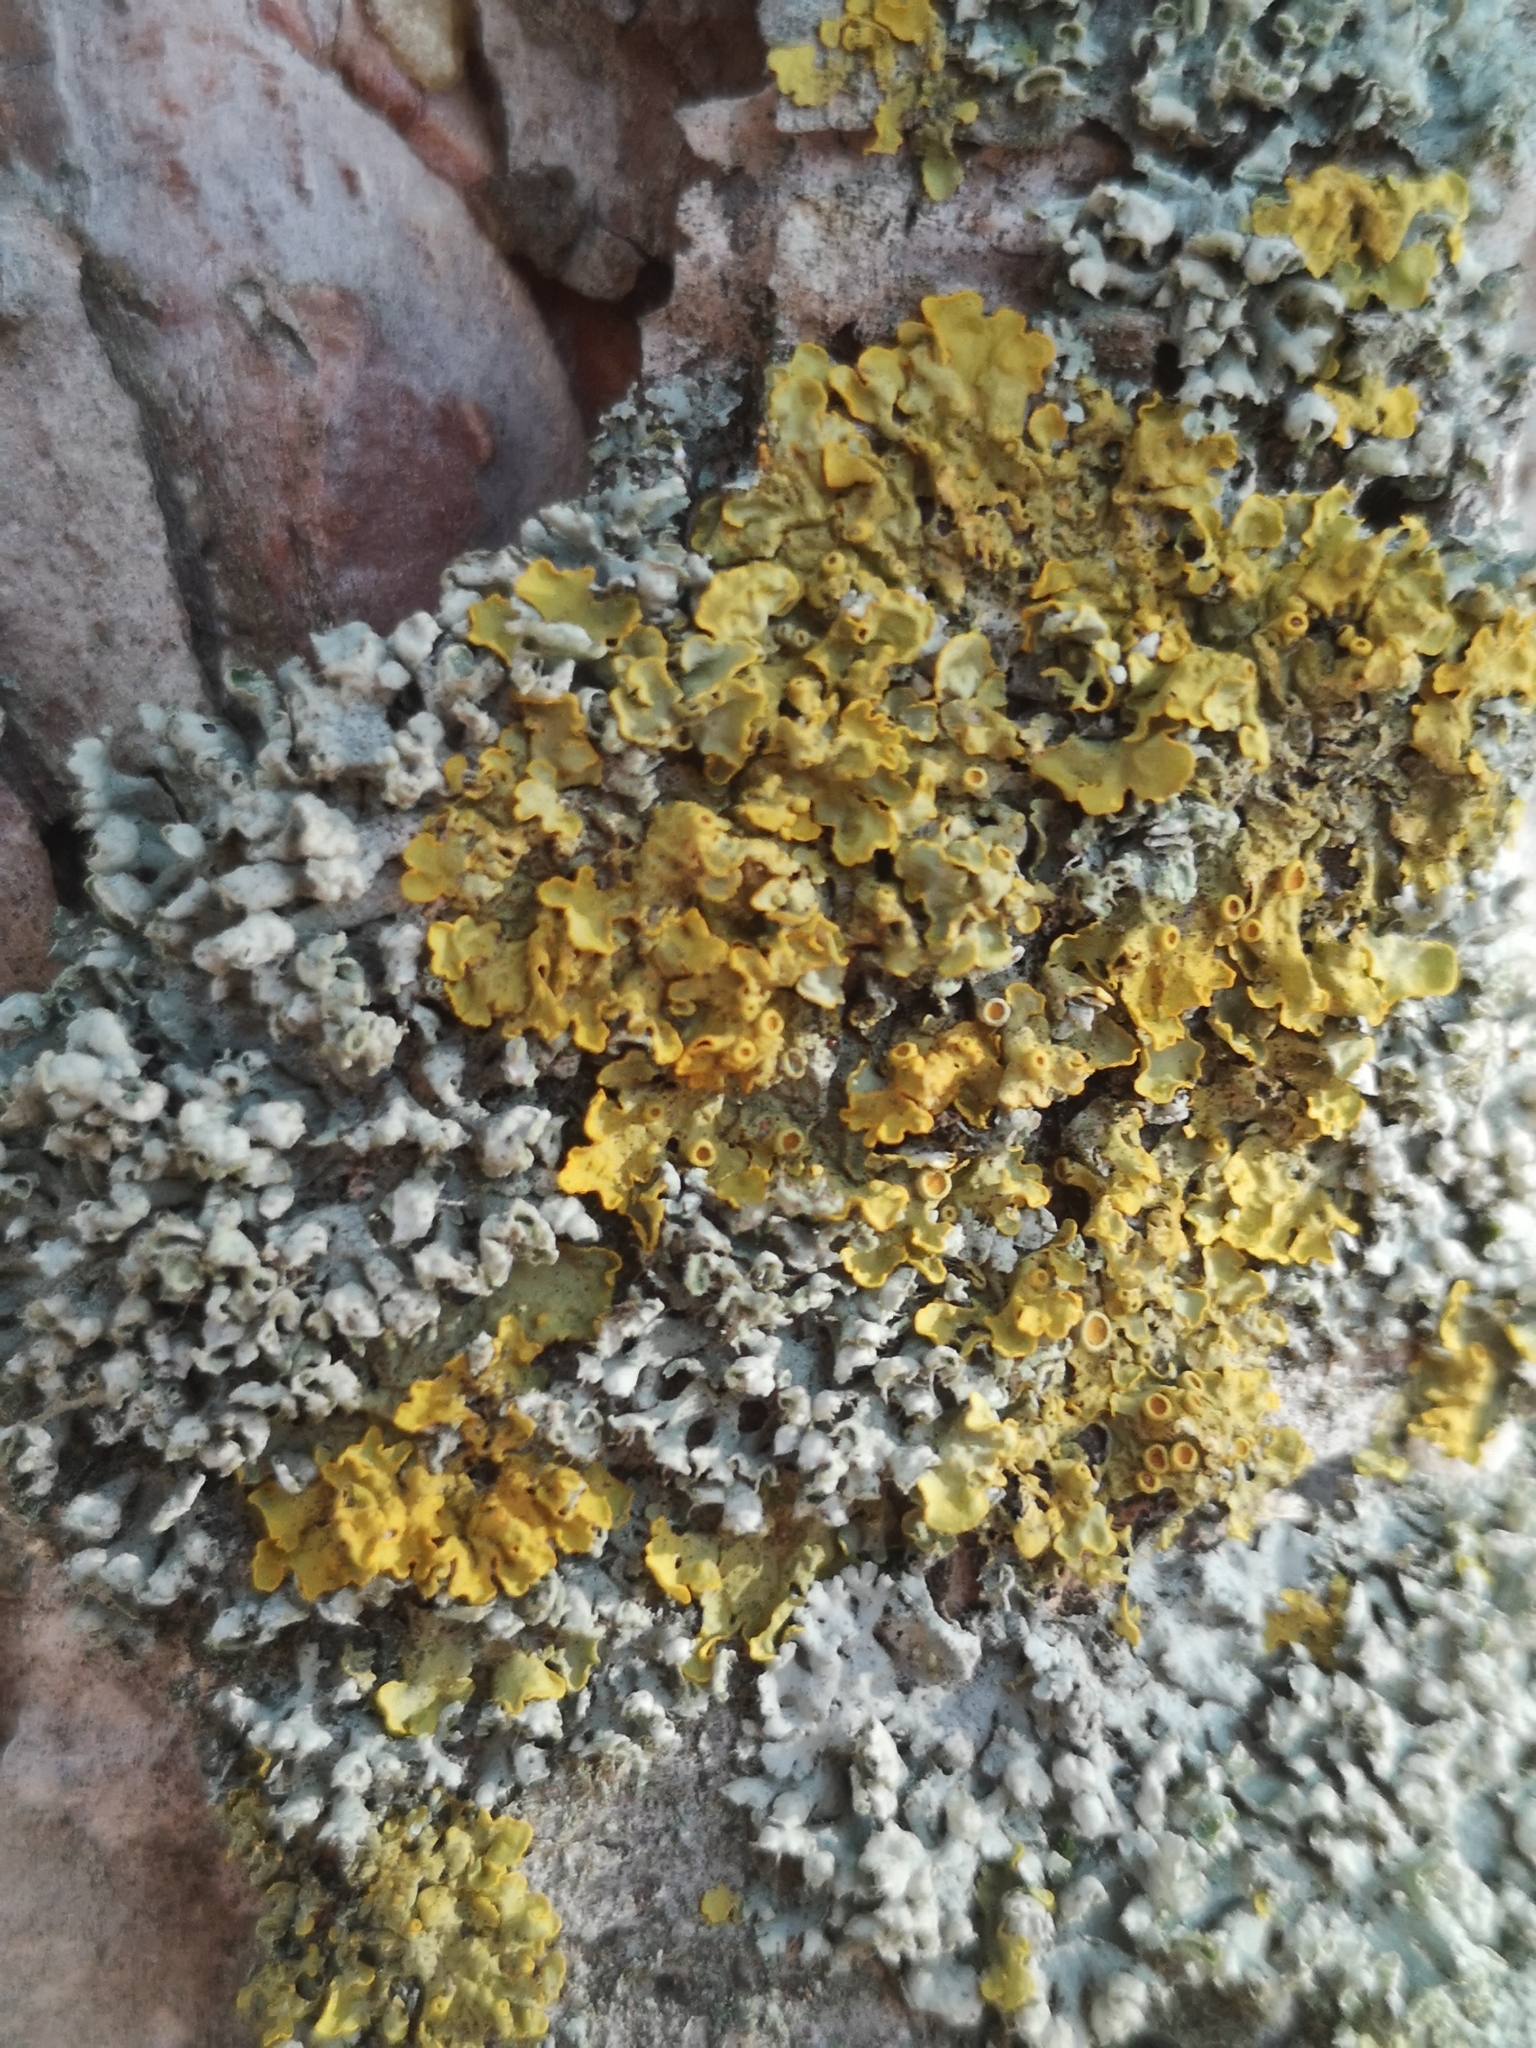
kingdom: Fungi
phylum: Ascomycota
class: Lecanoromycetes
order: Caliciales
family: Physciaceae
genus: Physcia
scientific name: Physcia adscendens
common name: Hooded rosette lichen
